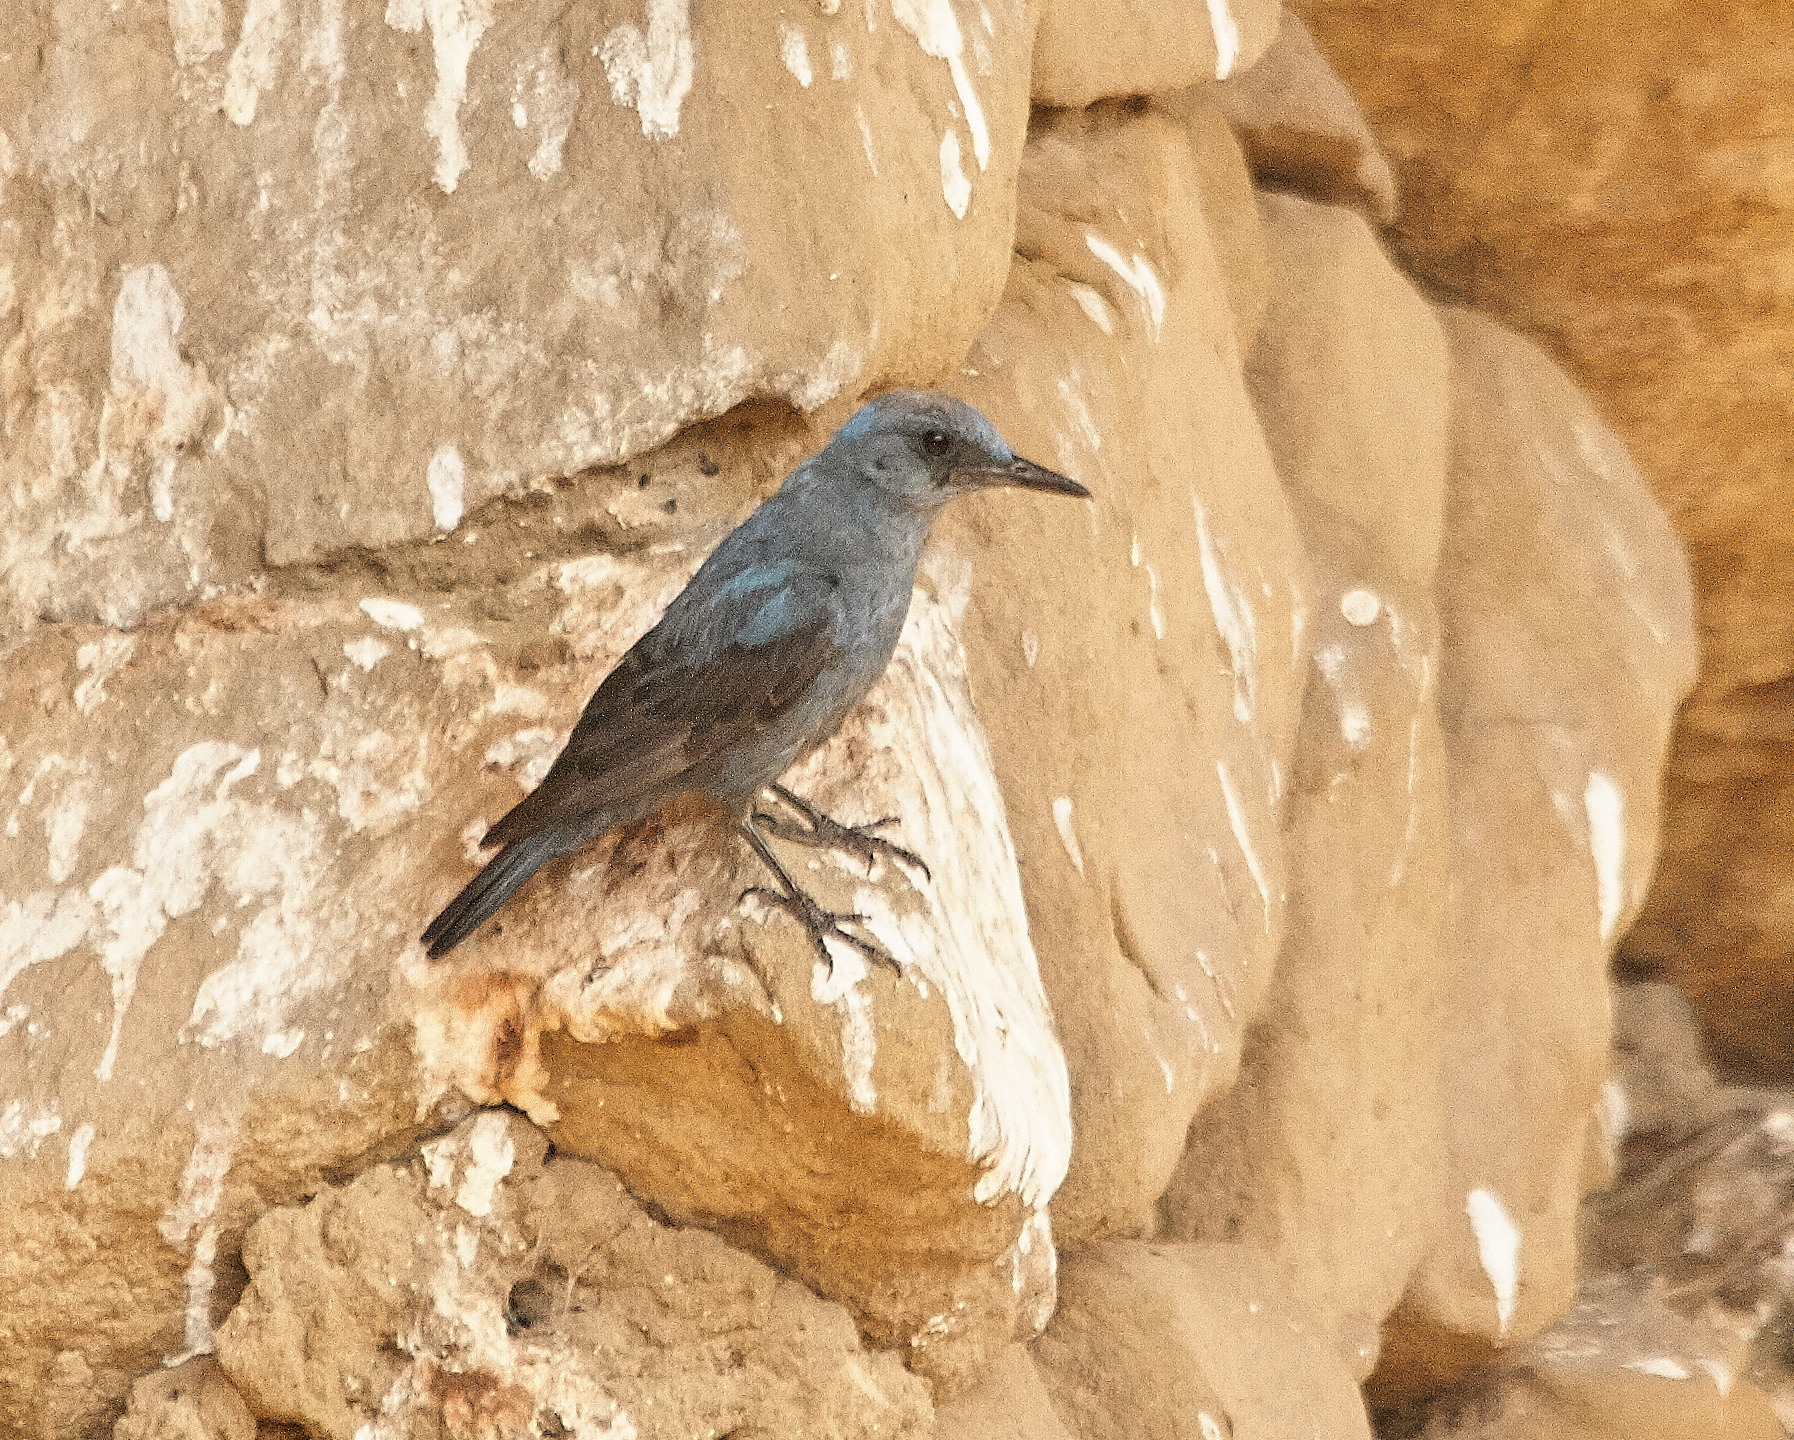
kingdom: Animalia
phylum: Chordata
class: Aves
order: Passeriformes
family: Muscicapidae
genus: Monticola
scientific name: Monticola solitarius
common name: Blue rock thrush
